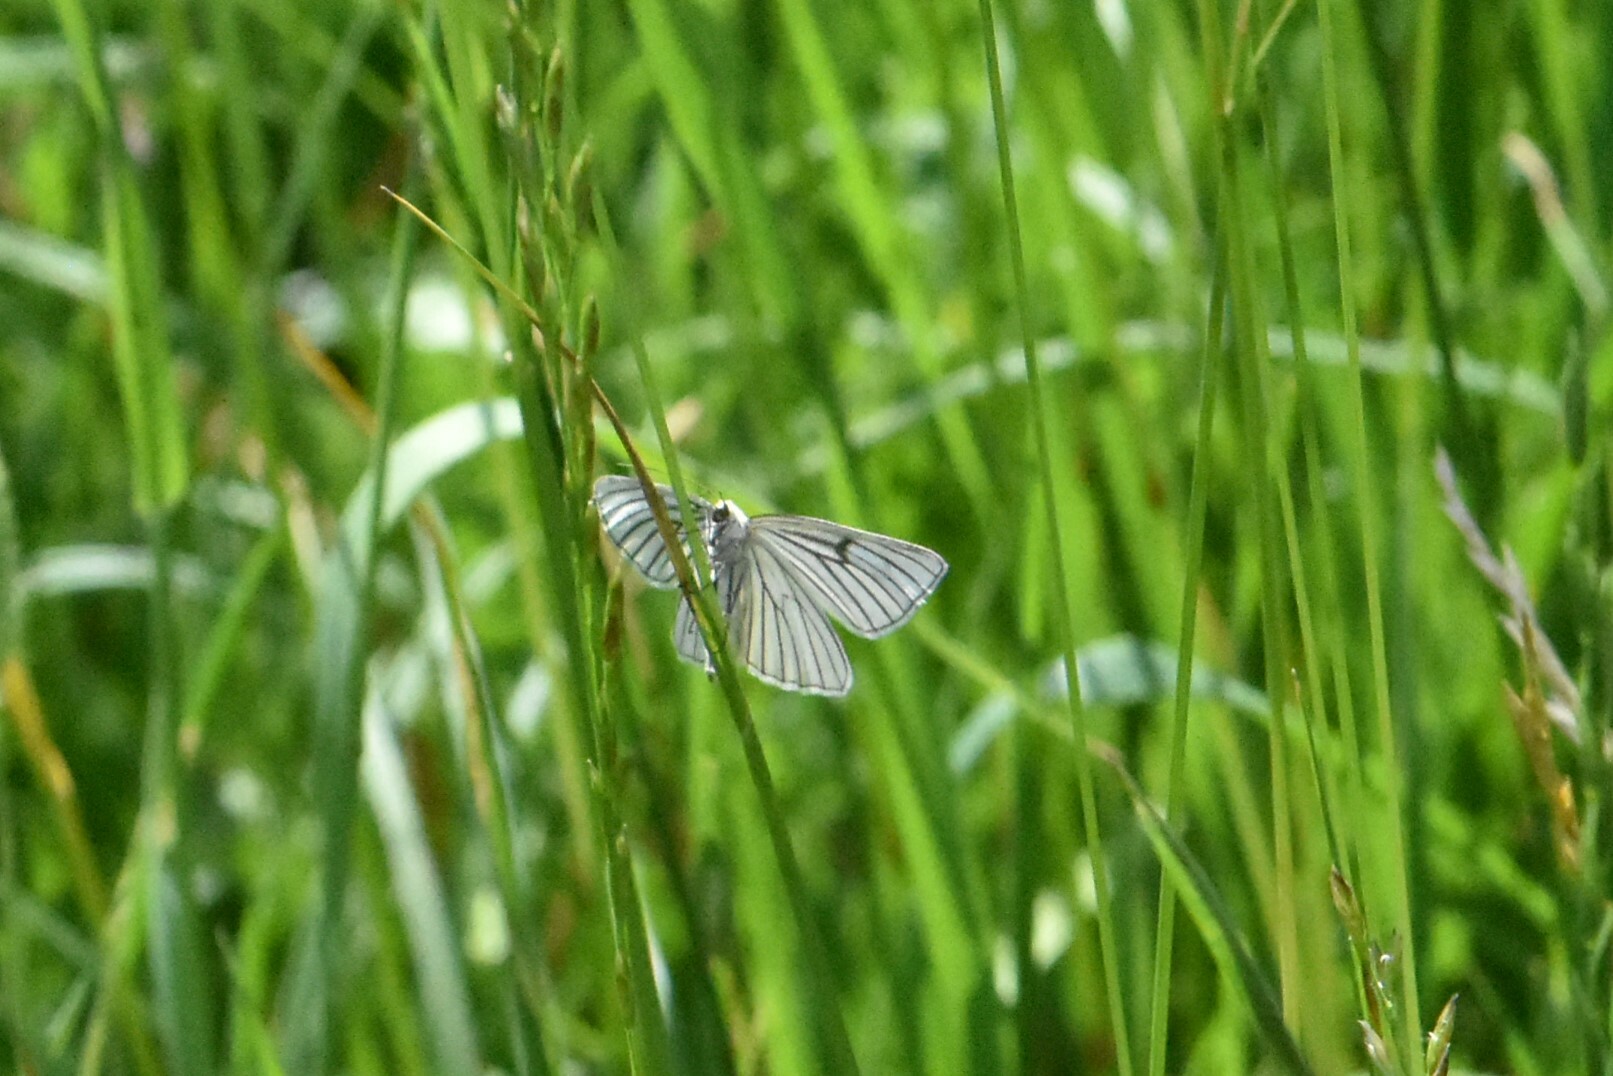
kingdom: Animalia
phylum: Arthropoda
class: Insecta
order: Lepidoptera
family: Geometridae
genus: Siona
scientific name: Siona lineata
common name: Black-veined moth
